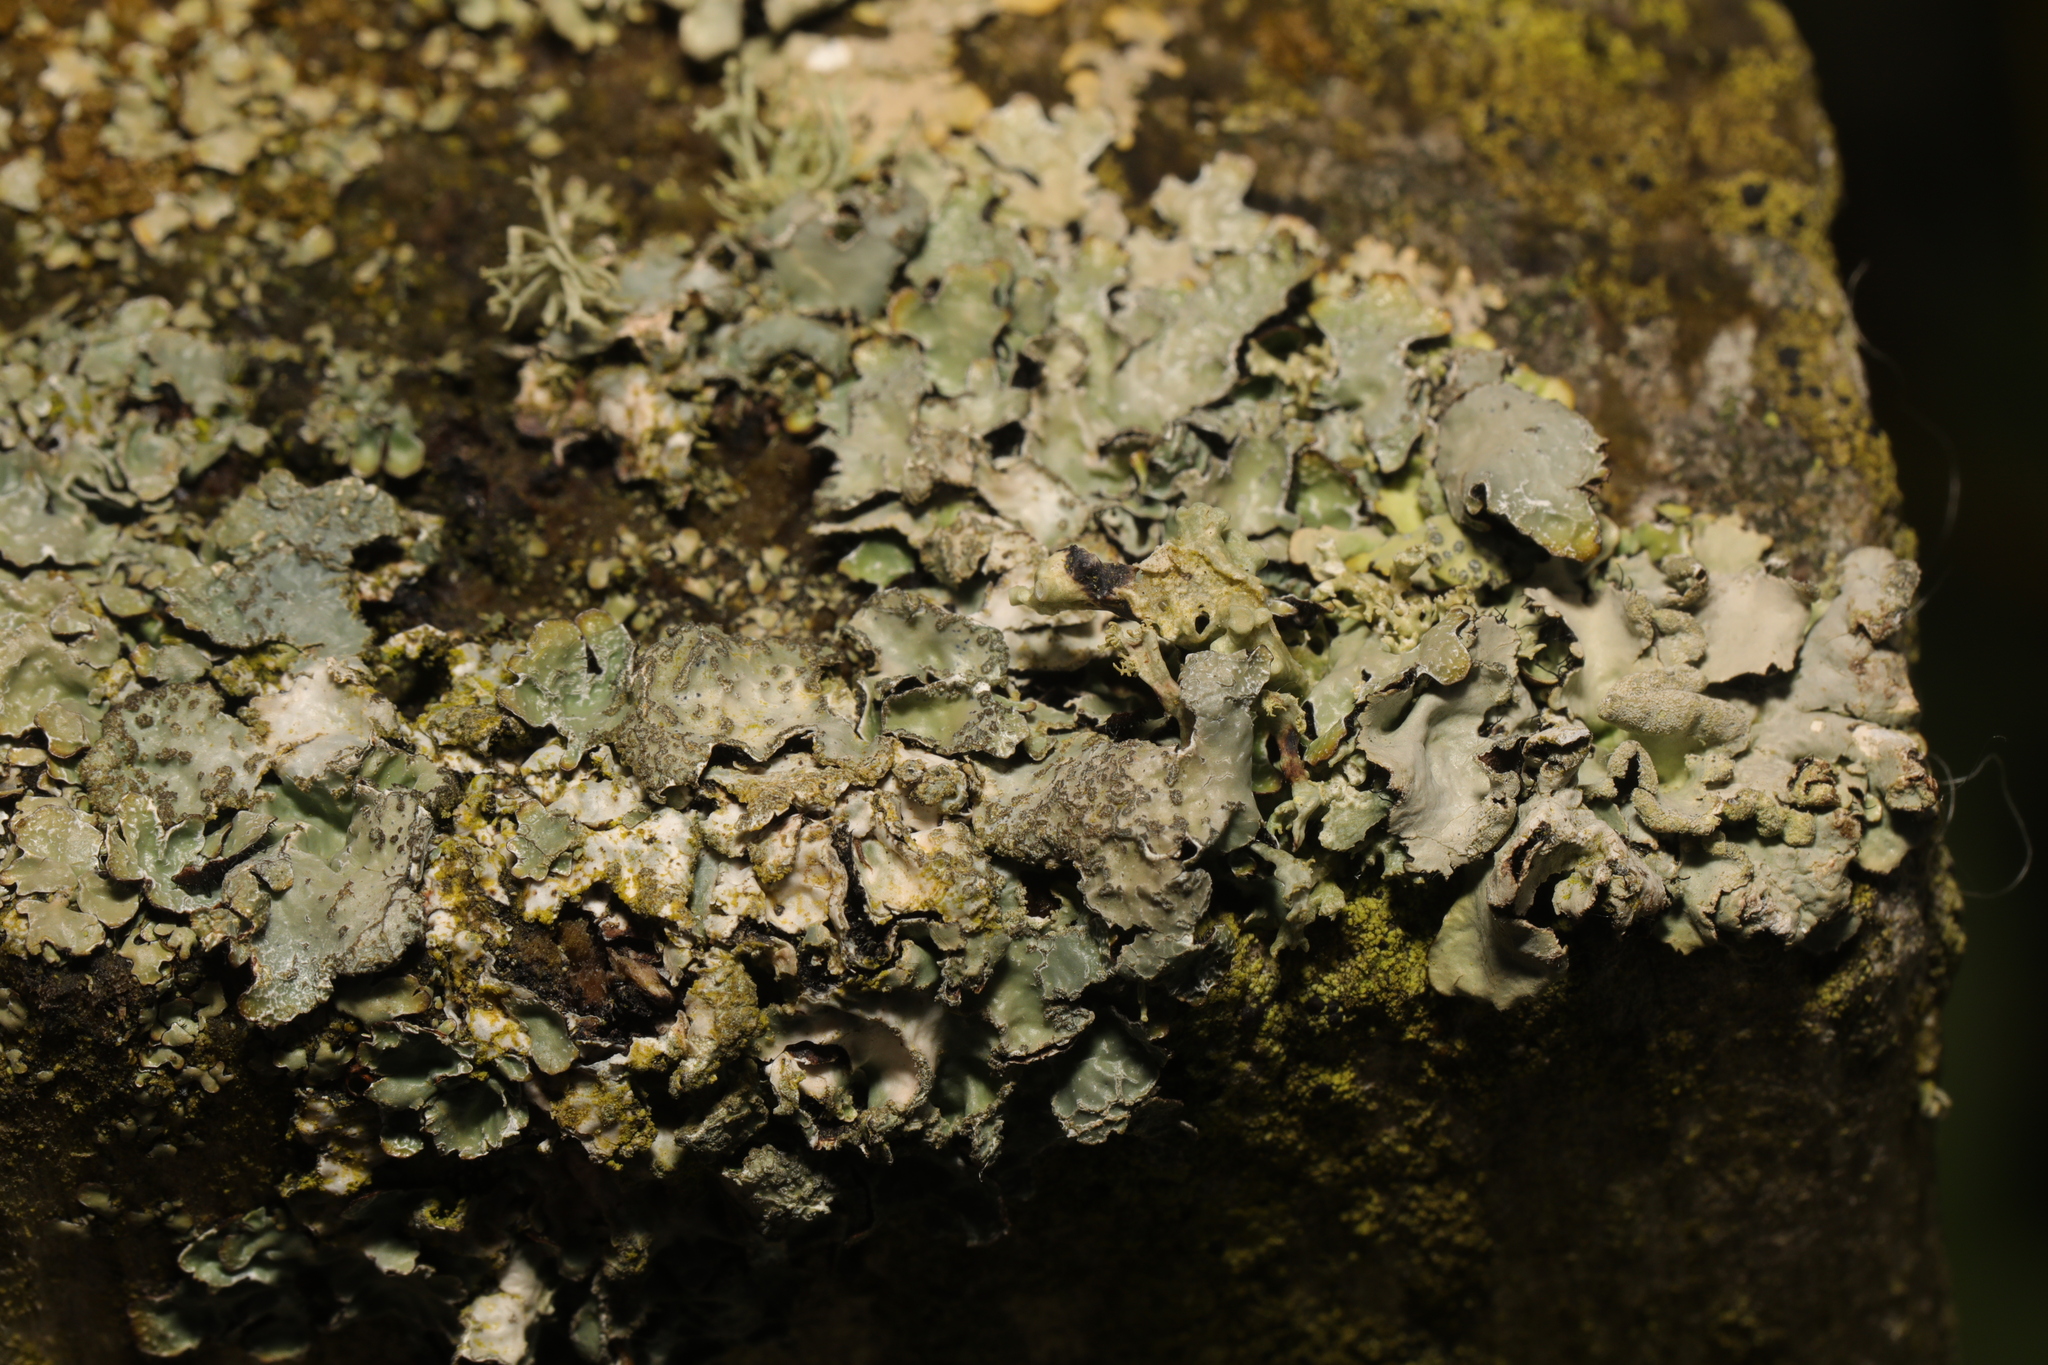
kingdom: Fungi
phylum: Ascomycota
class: Lecanoromycetes
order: Lecanorales
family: Parmeliaceae
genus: Parmelia
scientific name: Parmelia sulcata
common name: Netted shield lichen
